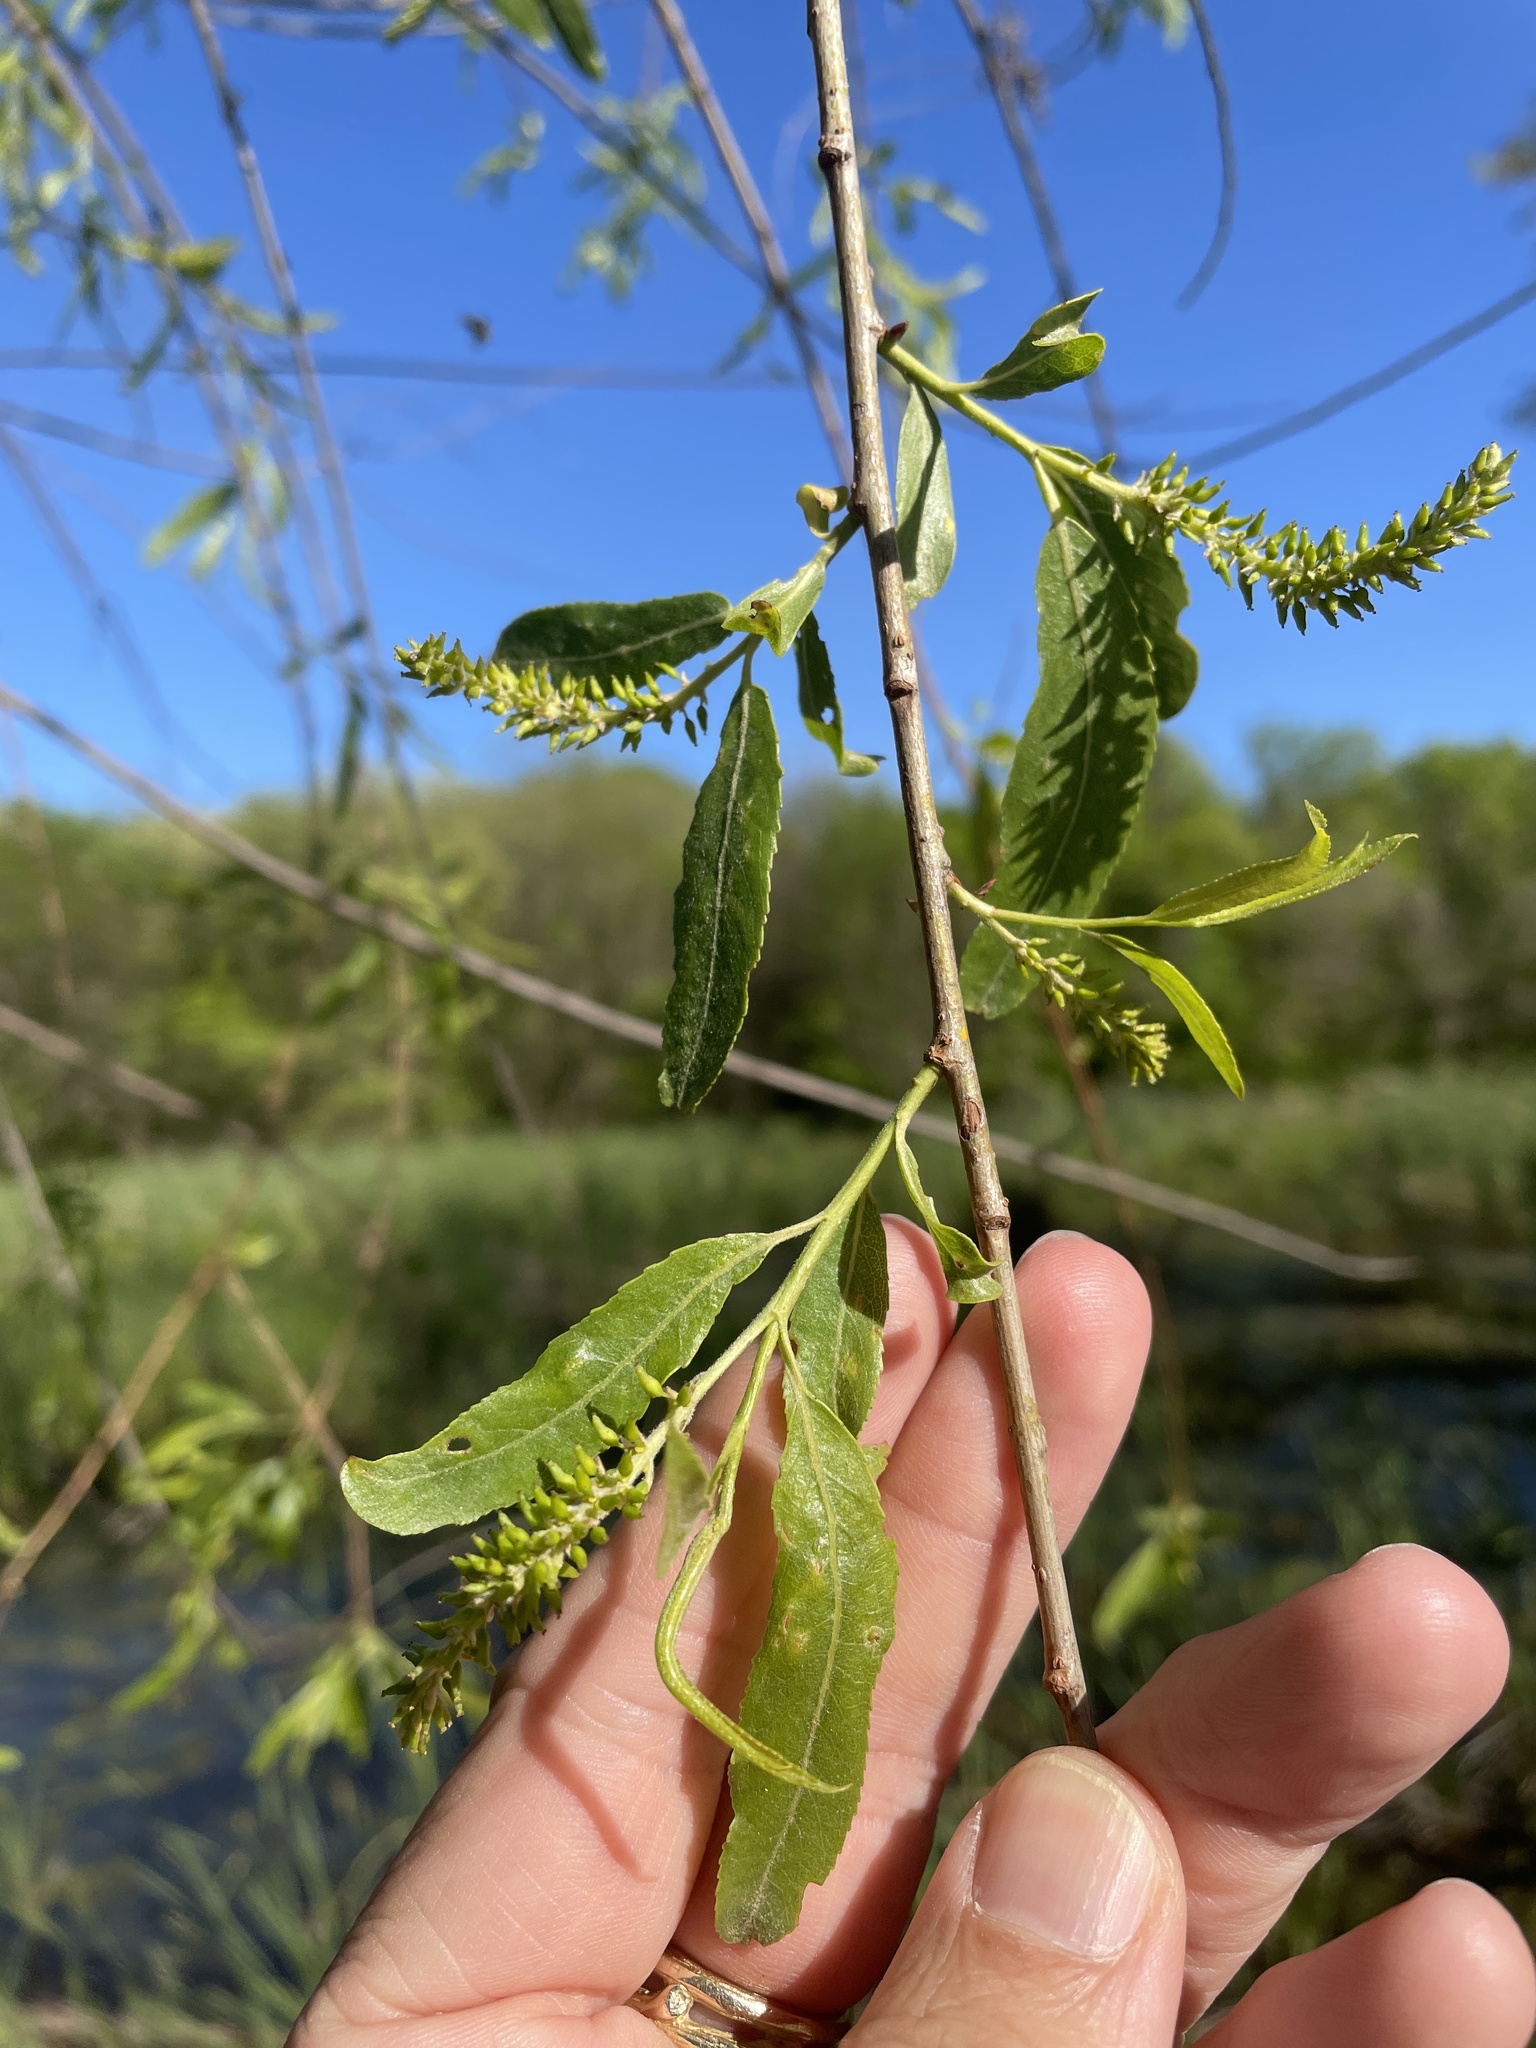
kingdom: Plantae
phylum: Tracheophyta
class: Magnoliopsida
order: Malpighiales
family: Salicaceae
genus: Salix
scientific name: Salix nigra
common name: Black willow
